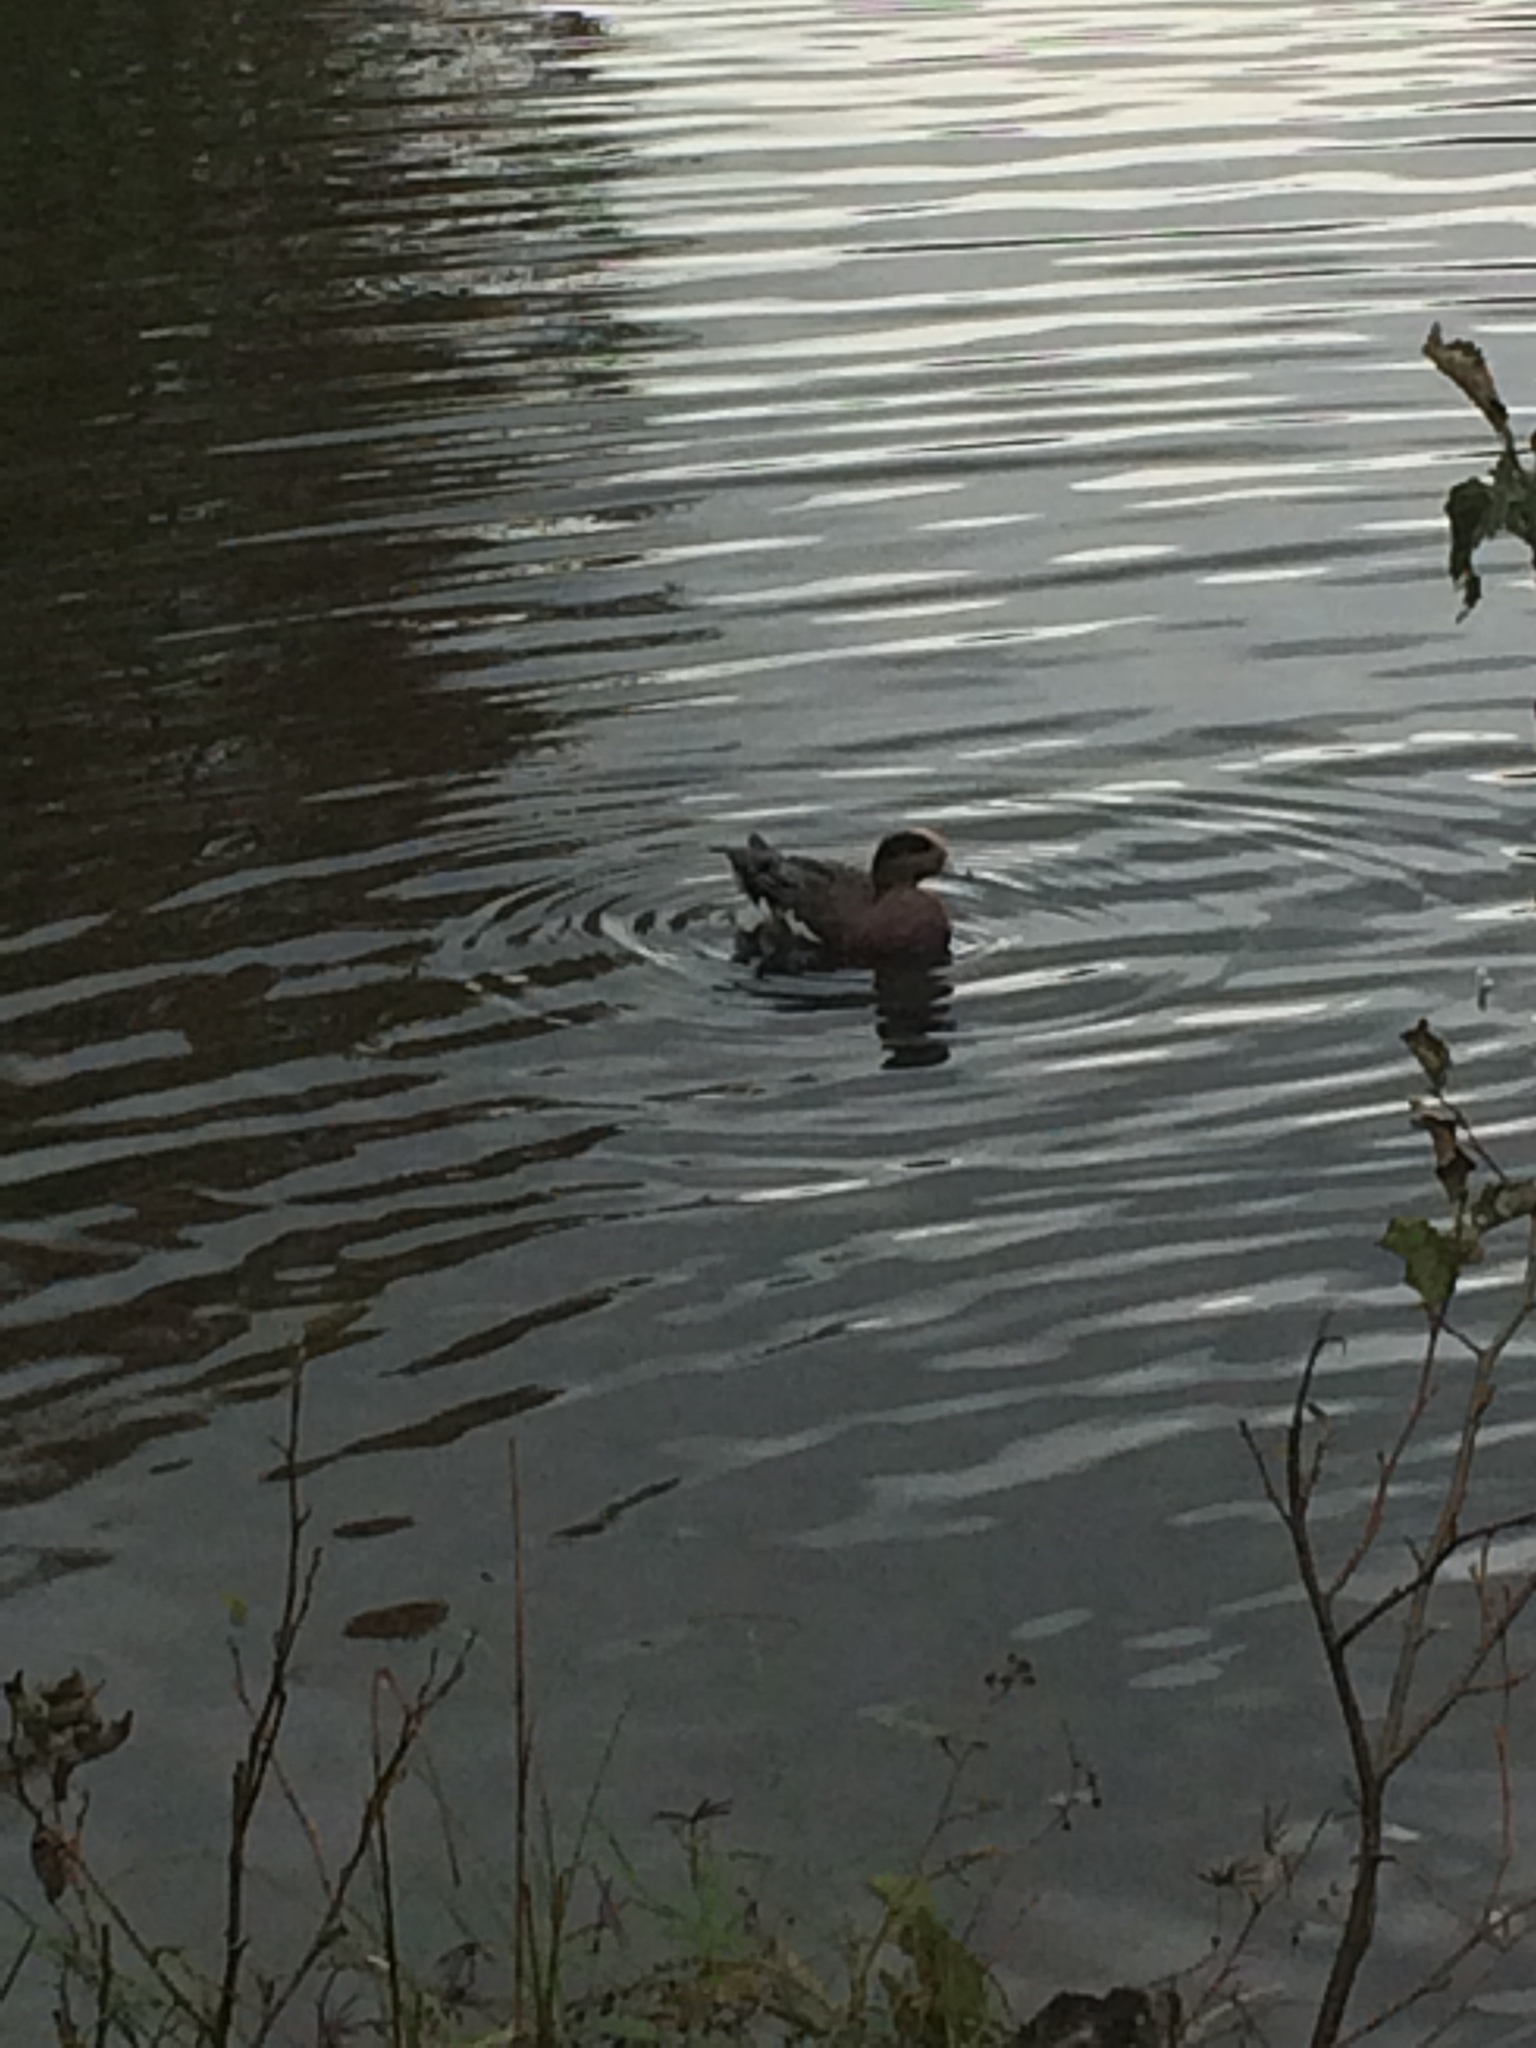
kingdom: Animalia
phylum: Chordata
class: Aves
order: Anseriformes
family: Anatidae
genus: Mareca
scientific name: Mareca americana
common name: American wigeon
